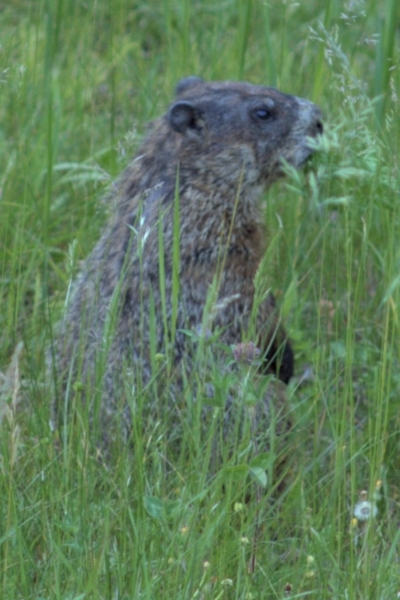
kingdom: Animalia
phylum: Chordata
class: Mammalia
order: Rodentia
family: Sciuridae
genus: Marmota
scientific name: Marmota monax
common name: Groundhog
